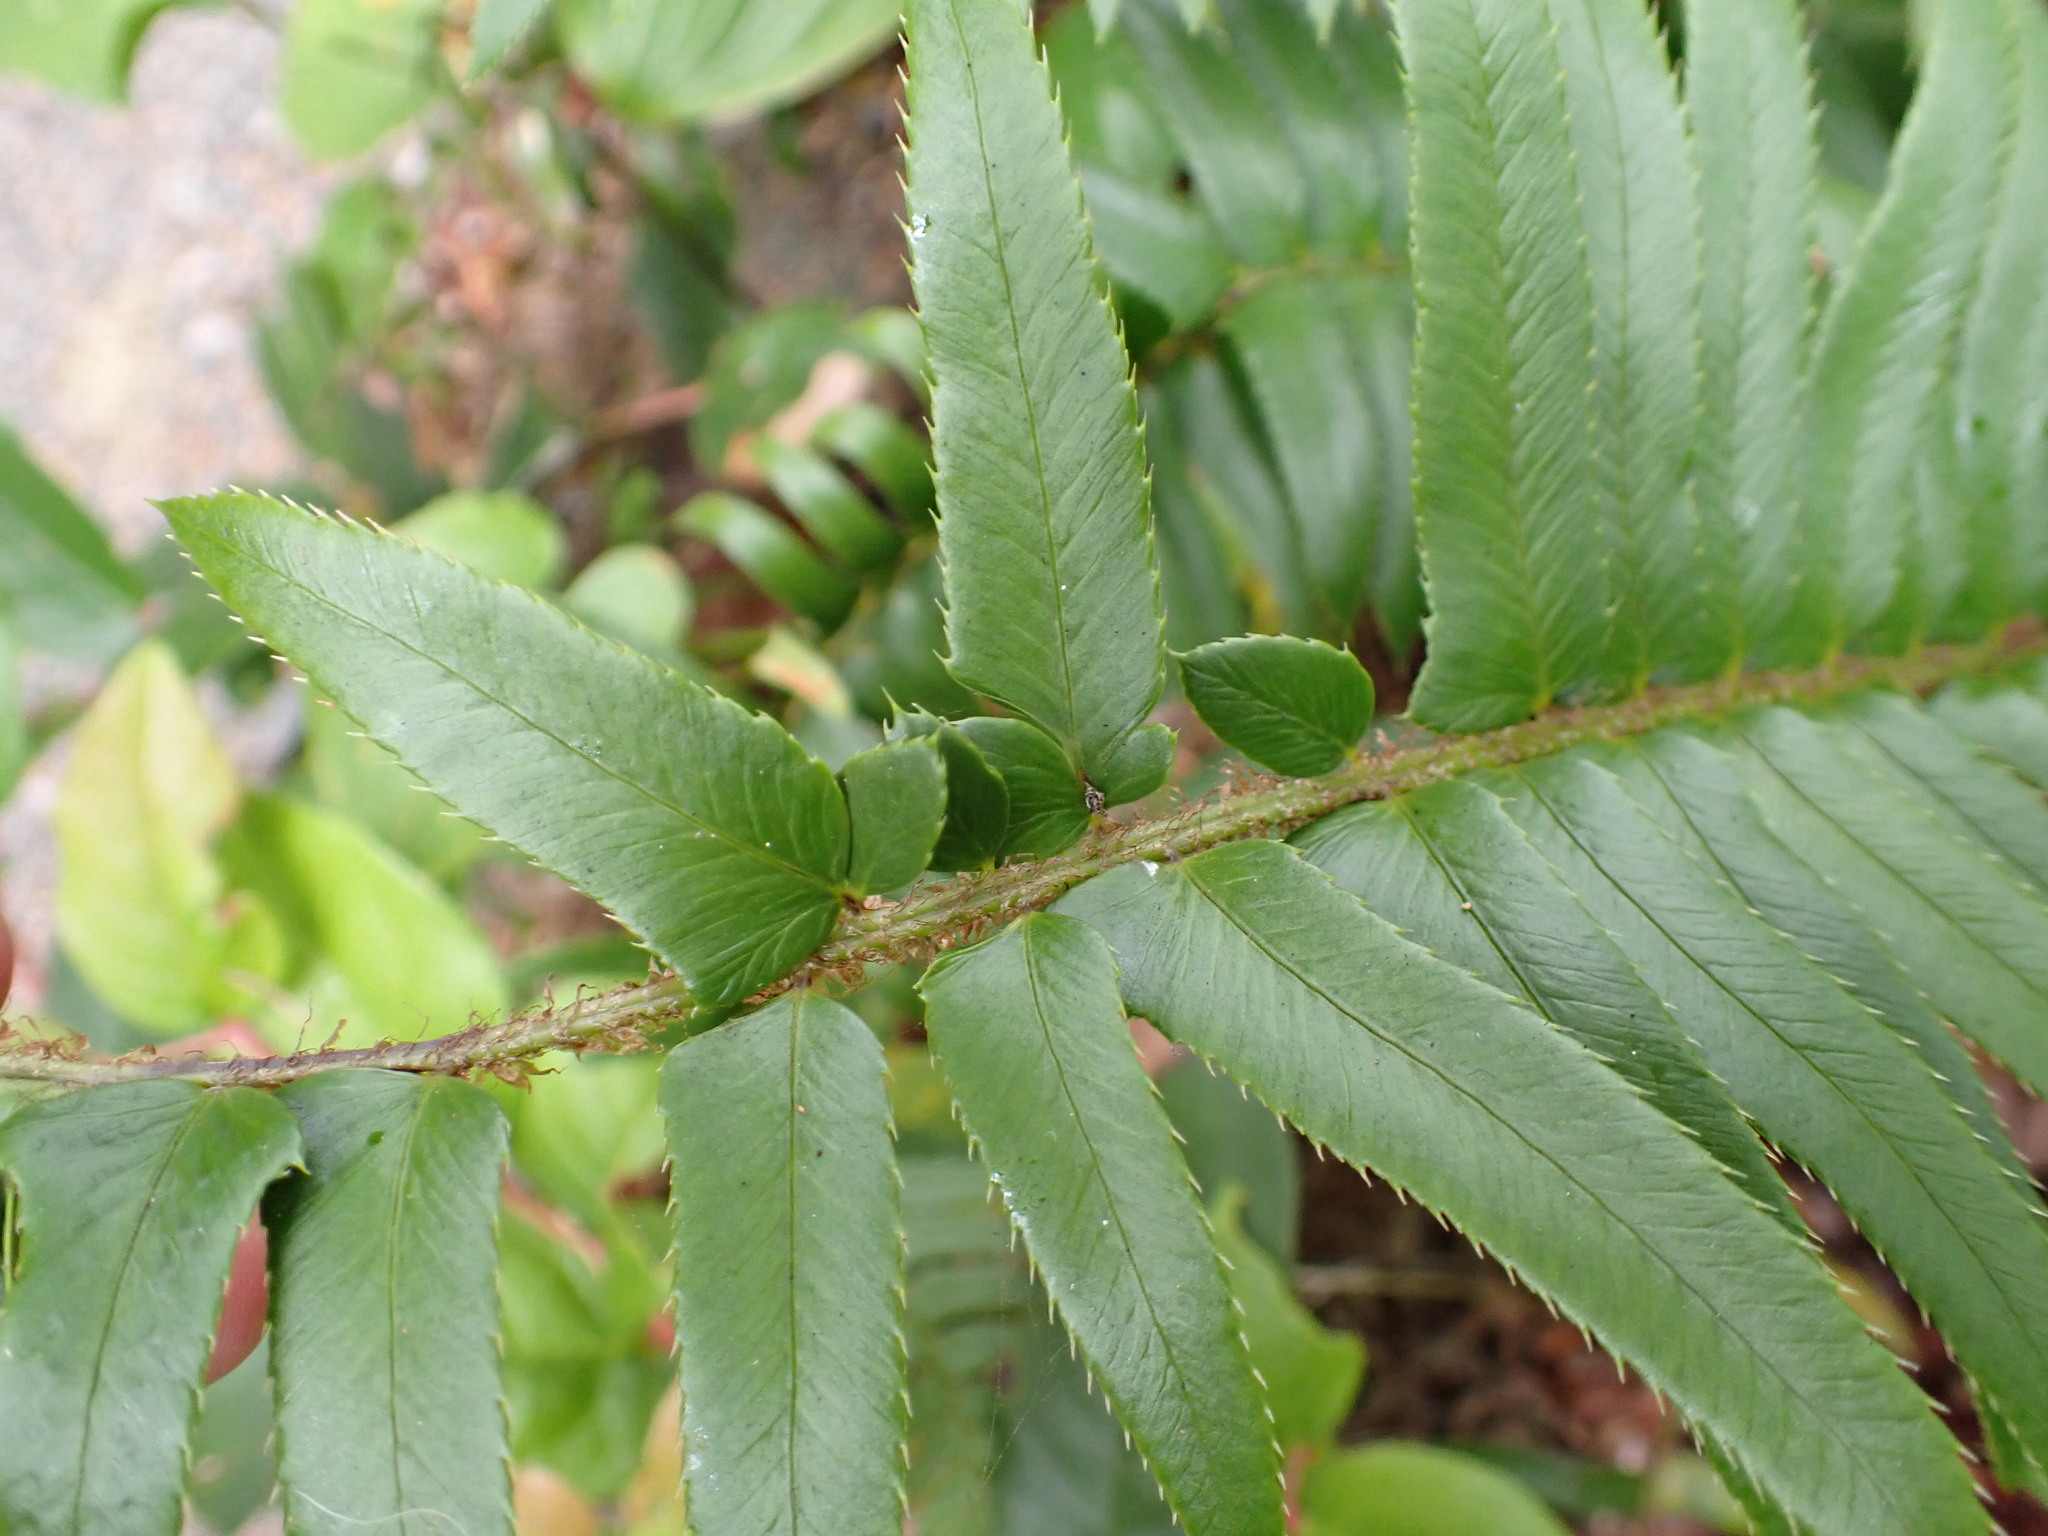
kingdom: Plantae
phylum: Tracheophyta
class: Polypodiopsida
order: Polypodiales
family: Dryopteridaceae
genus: Polystichum
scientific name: Polystichum munitum
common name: Western sword-fern
